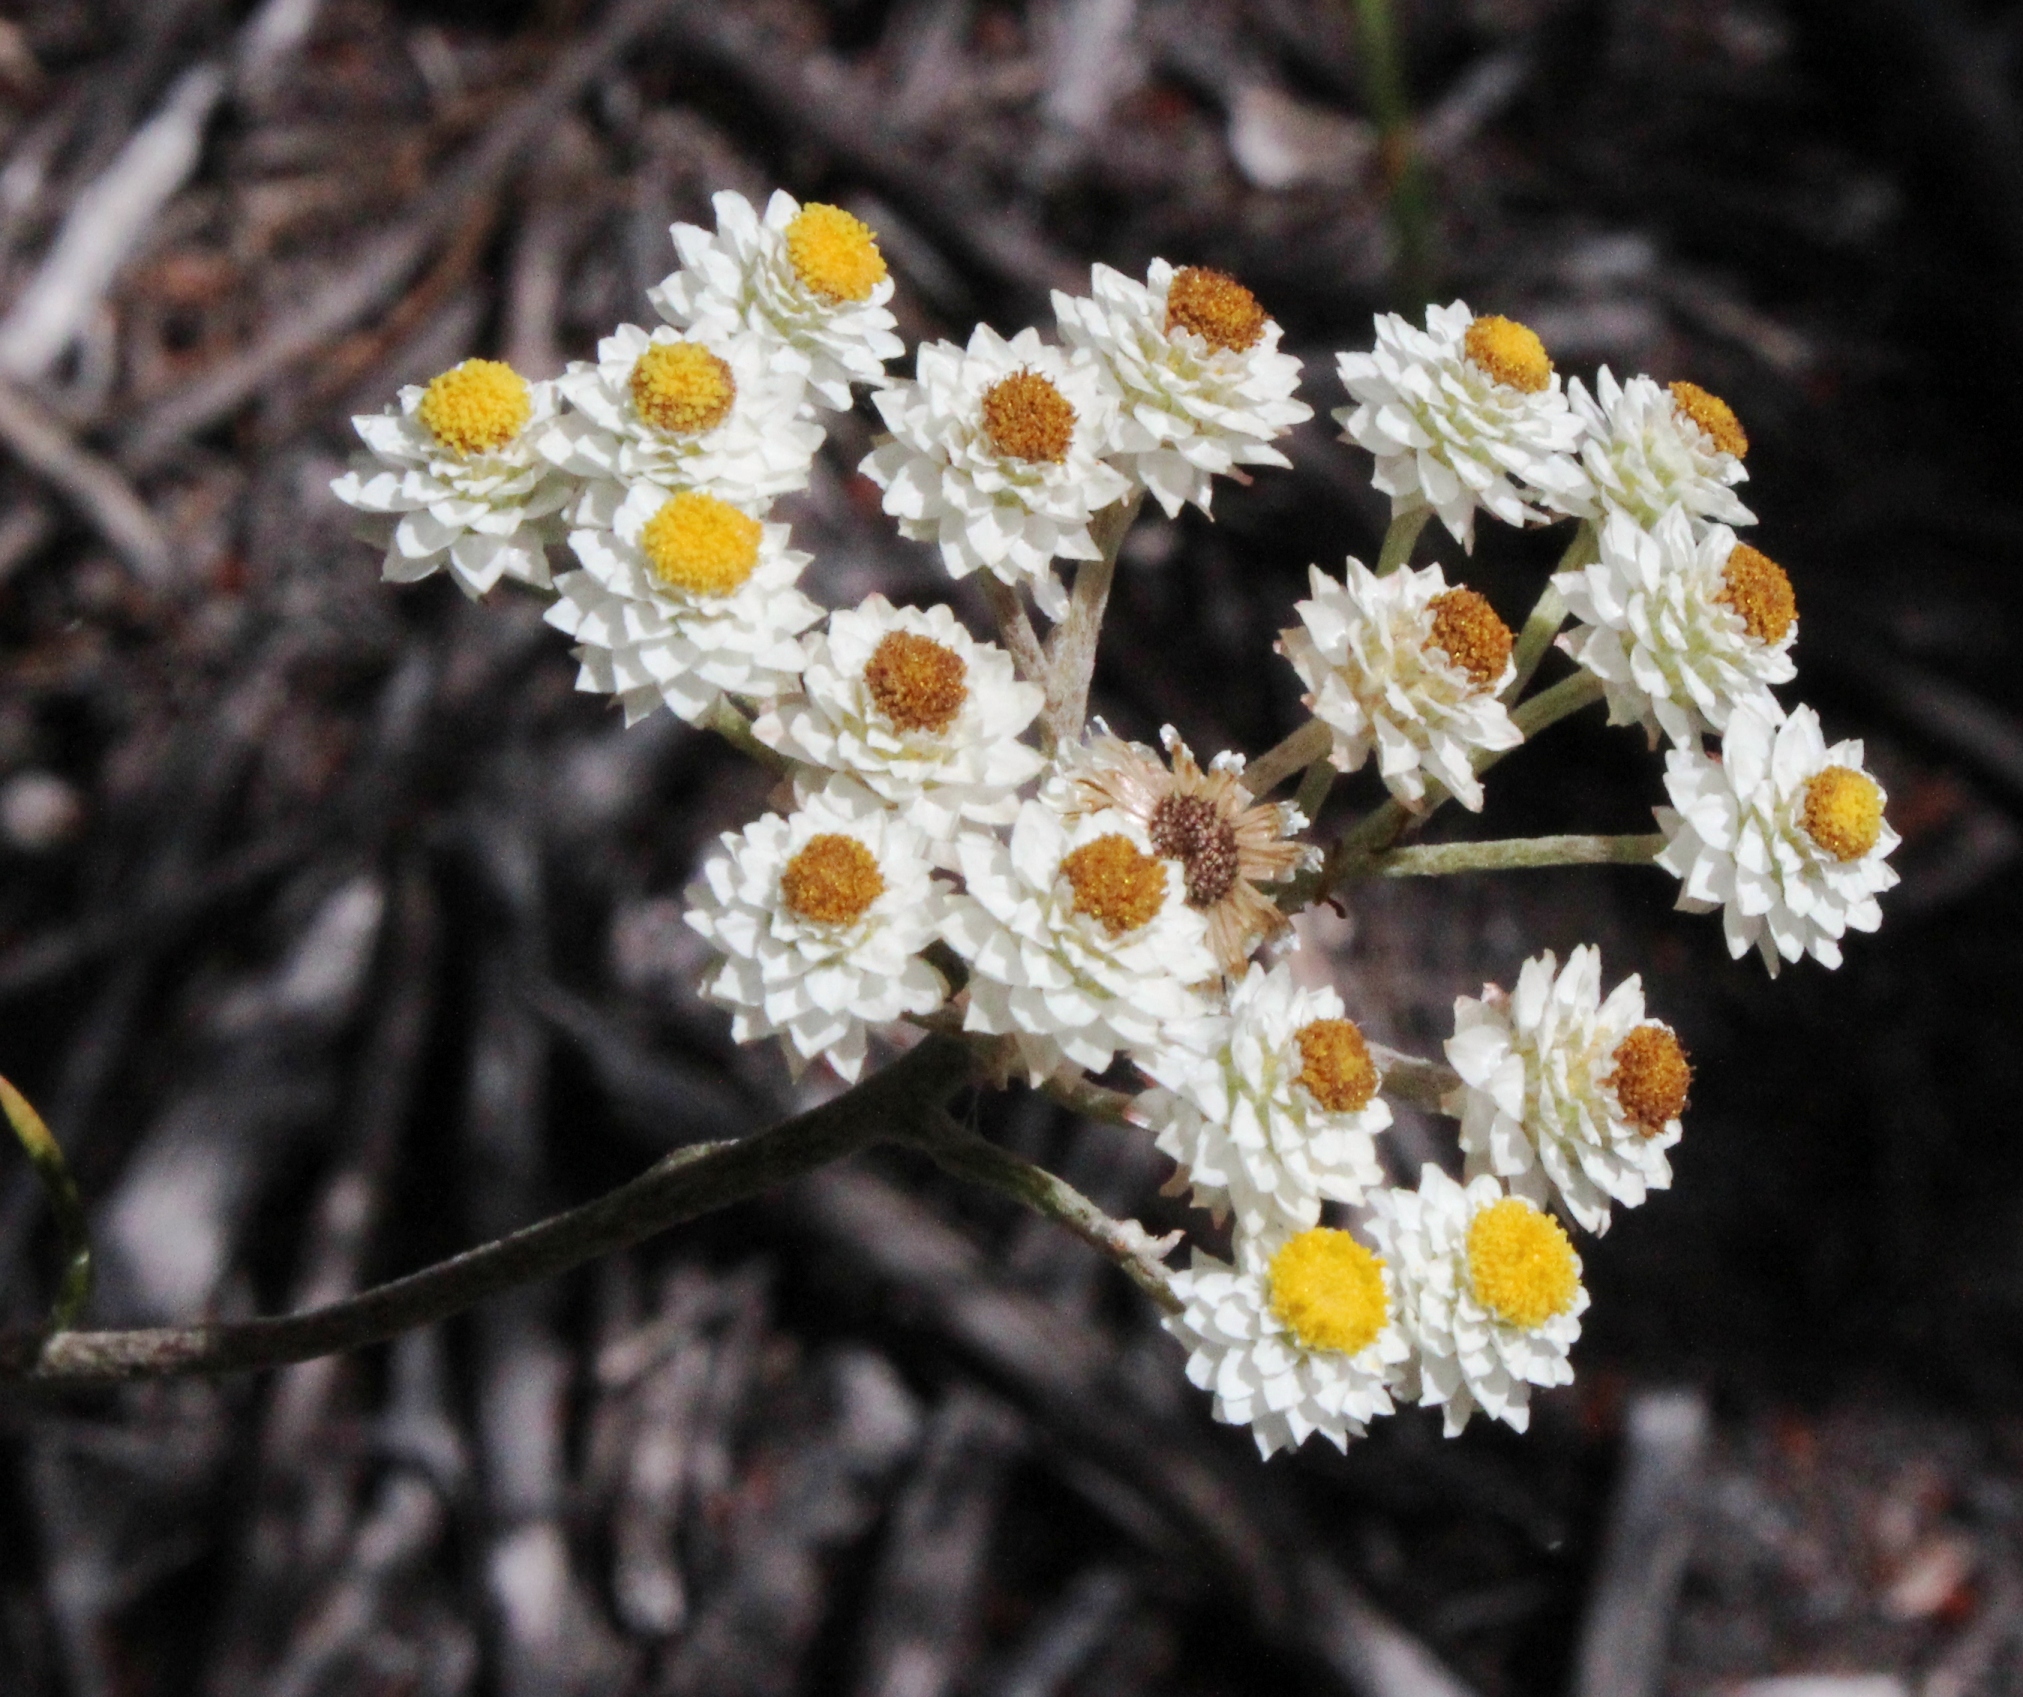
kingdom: Plantae
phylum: Tracheophyta
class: Magnoliopsida
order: Asterales
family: Asteraceae
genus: Helichrysum
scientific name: Helichrysum felinum
